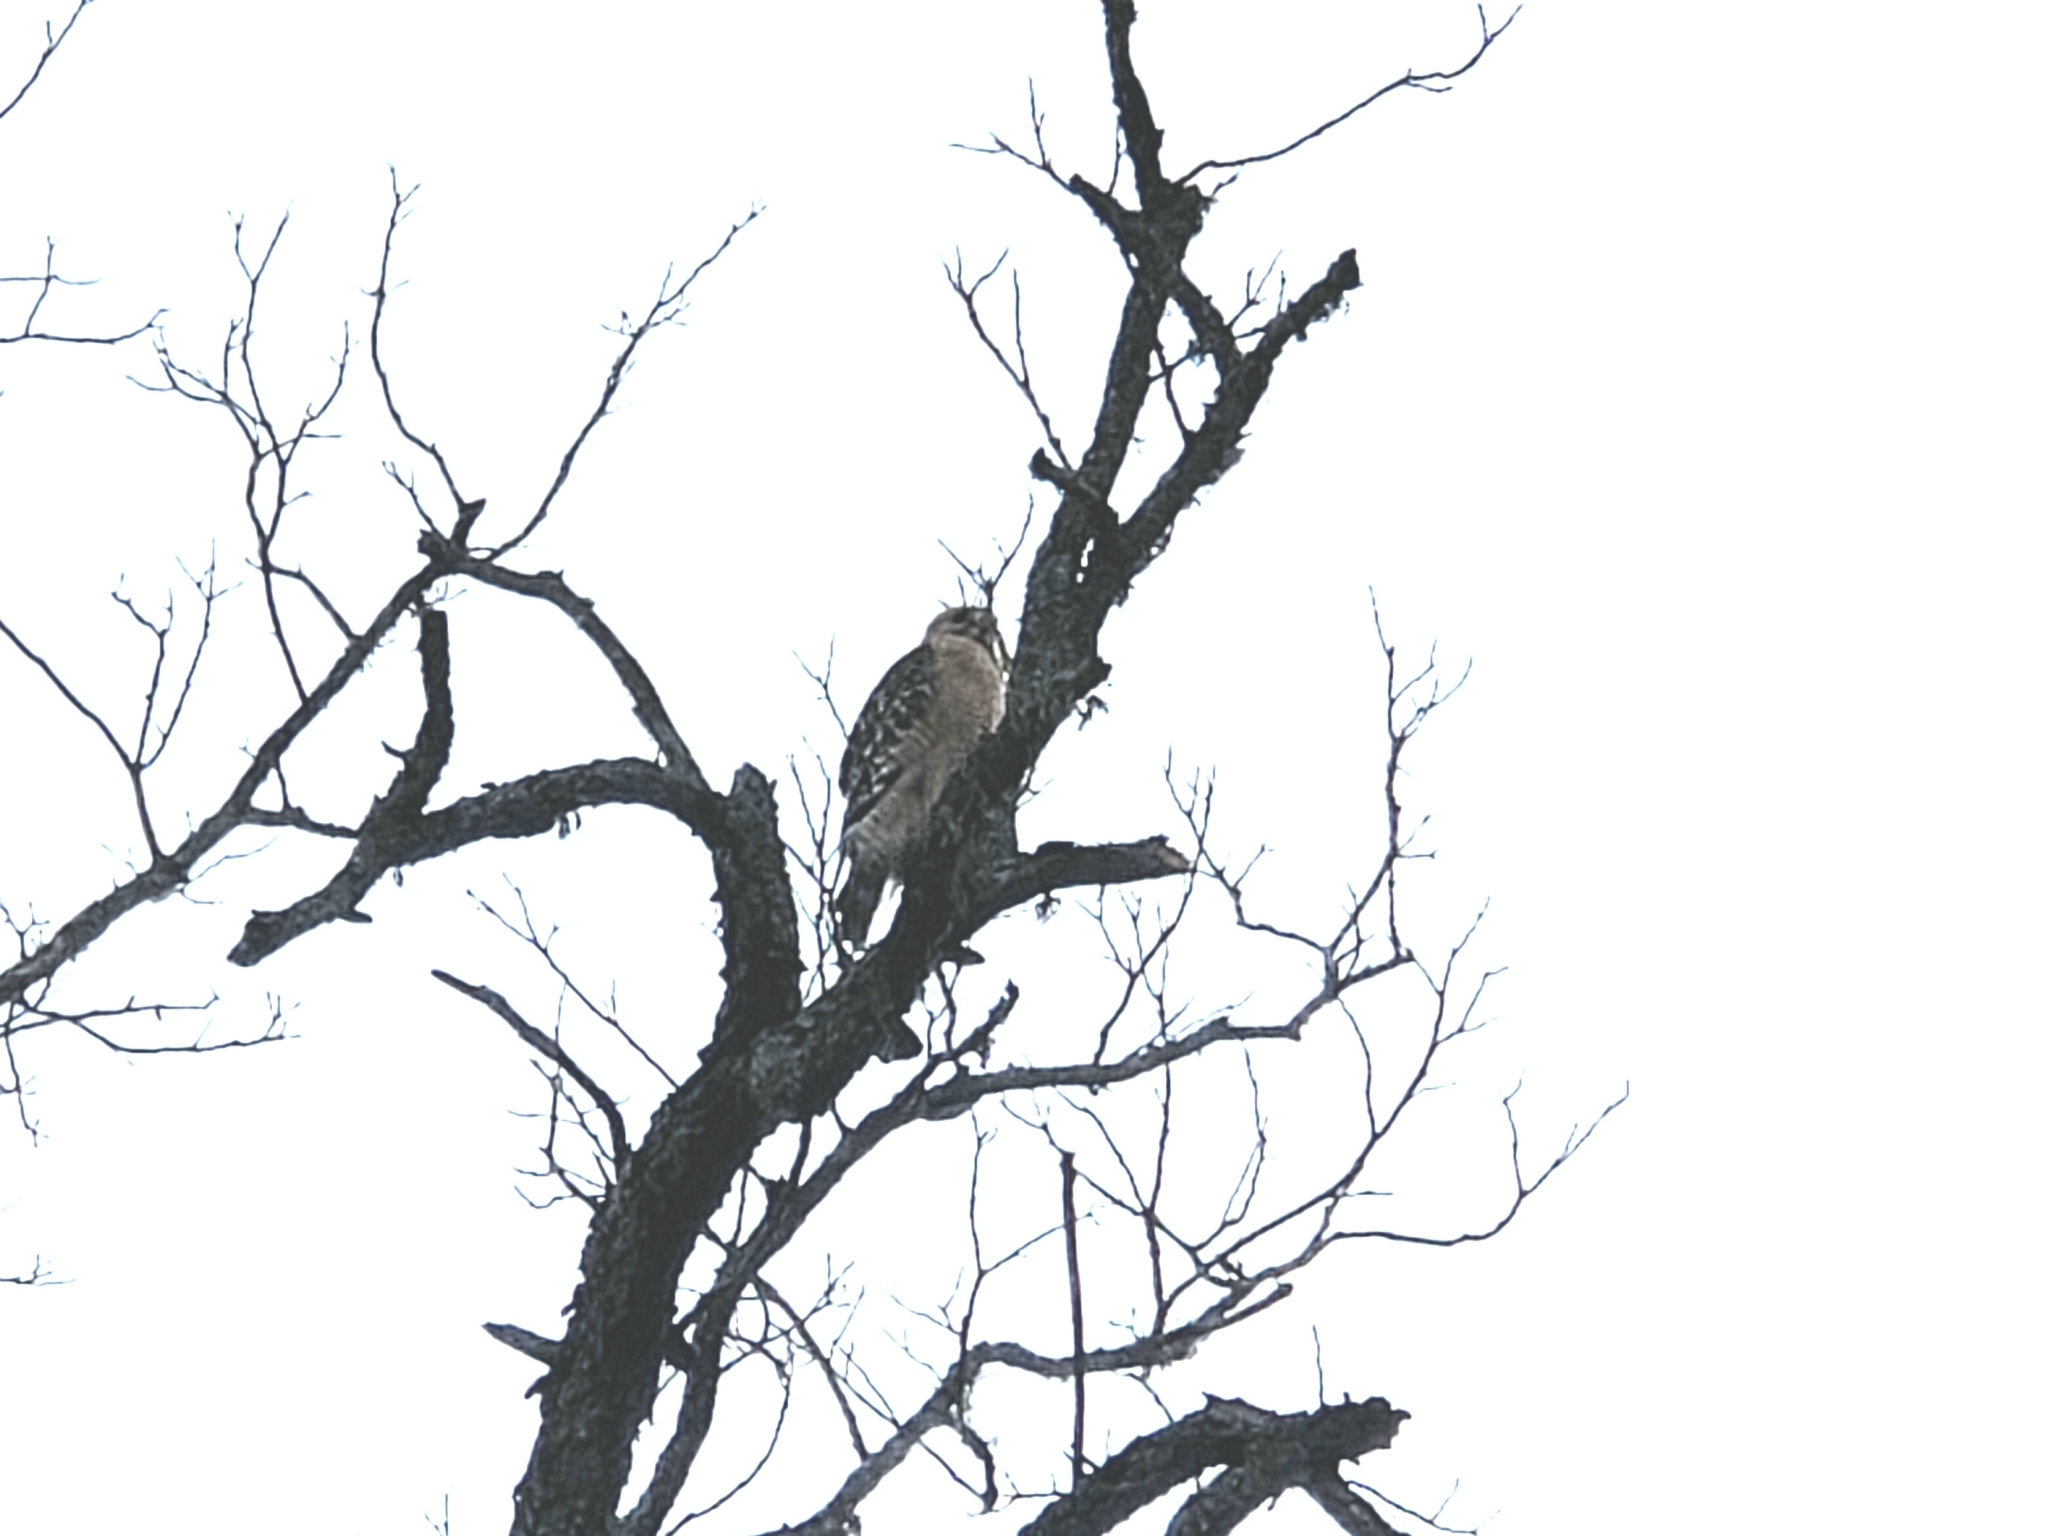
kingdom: Animalia
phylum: Chordata
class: Aves
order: Accipitriformes
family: Accipitridae
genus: Buteo
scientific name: Buteo lineatus
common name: Red-shouldered hawk
